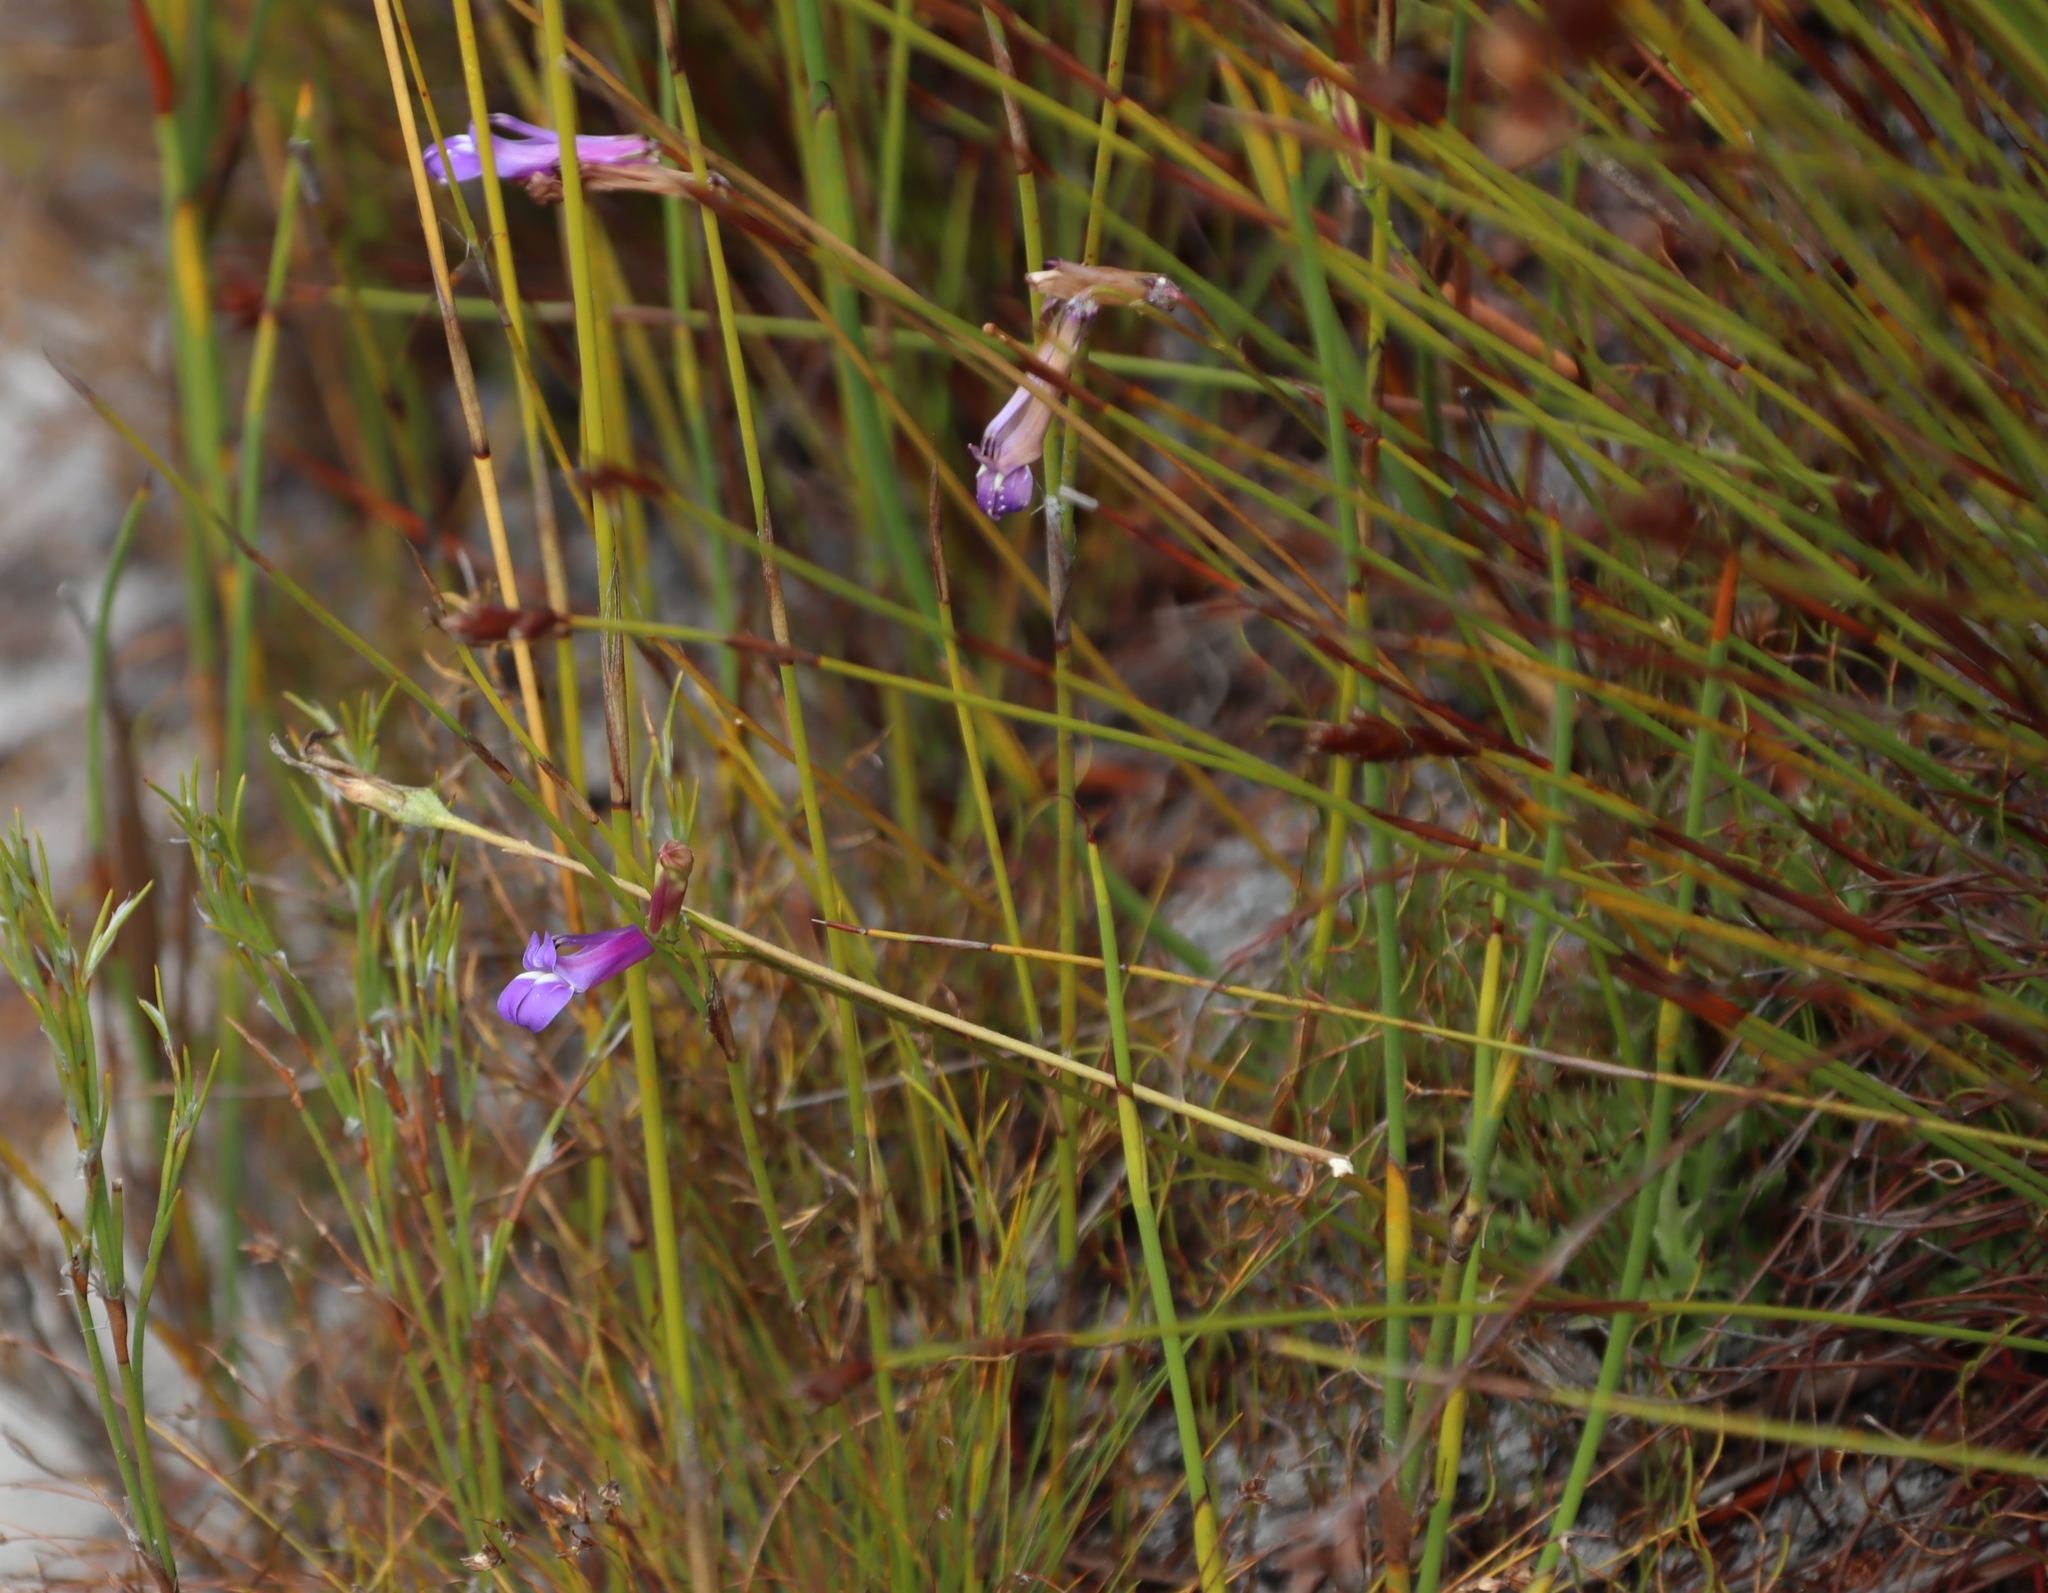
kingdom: Plantae
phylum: Tracheophyta
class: Magnoliopsida
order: Asterales
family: Campanulaceae
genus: Lobelia
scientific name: Lobelia coronopifolia
